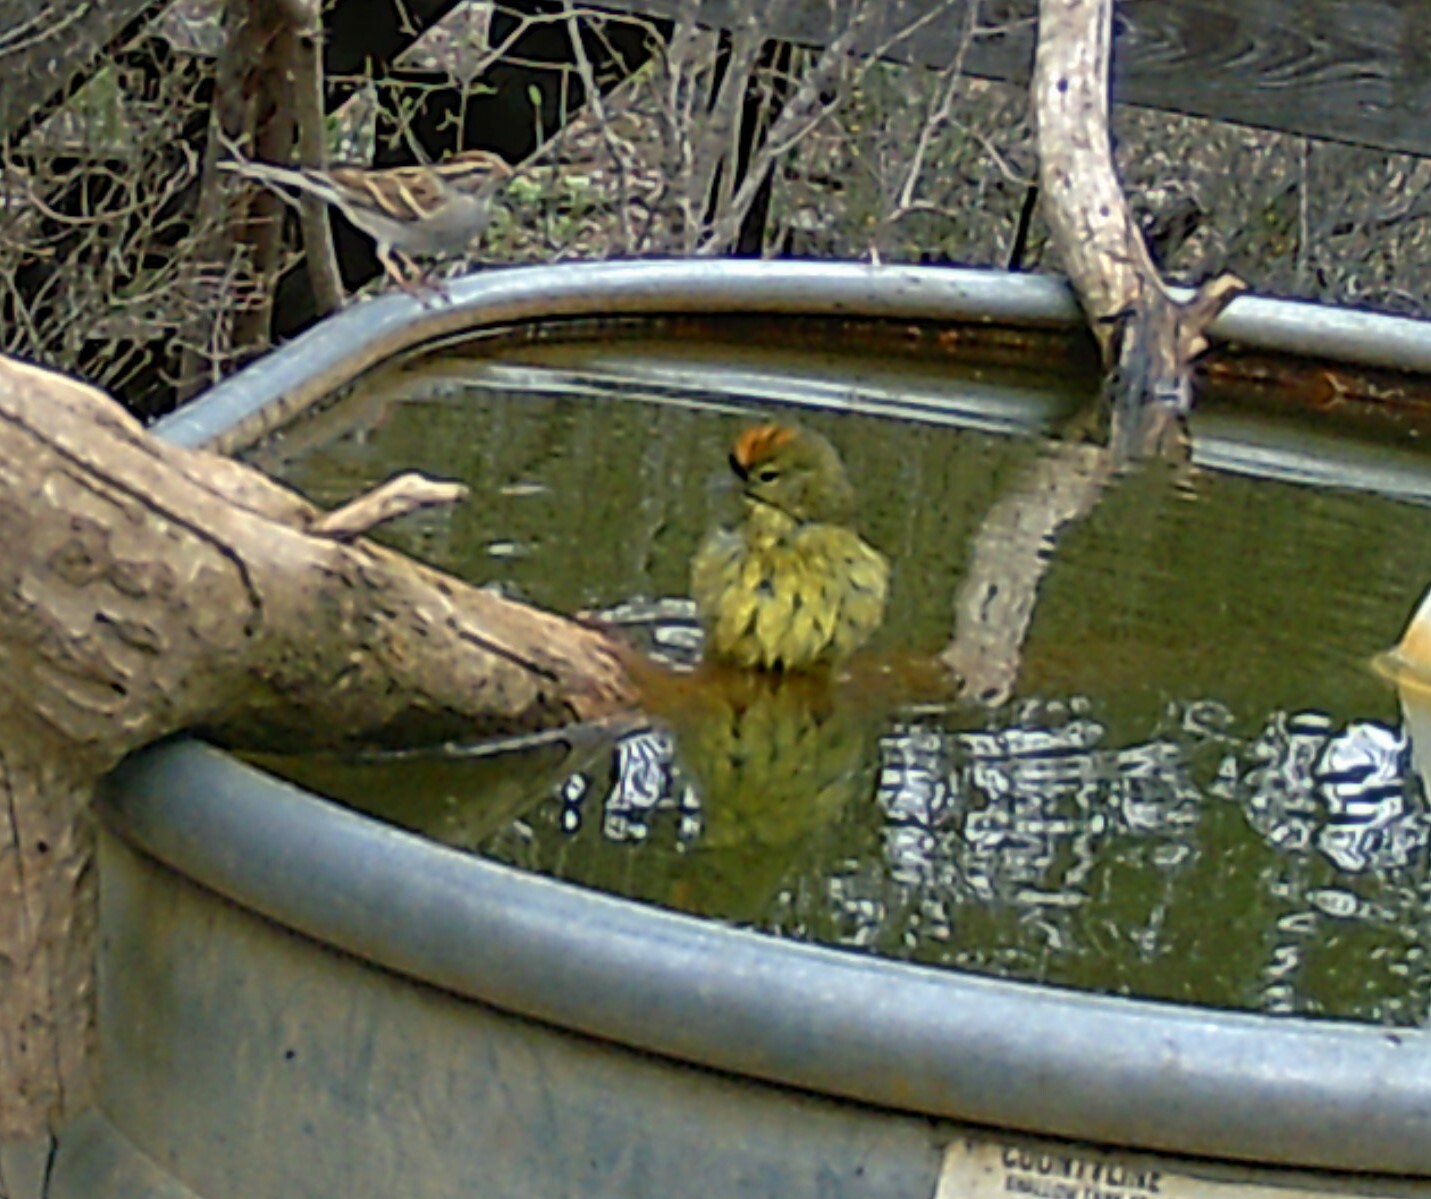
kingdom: Animalia
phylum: Chordata
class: Aves
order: Passeriformes
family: Parulidae
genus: Leiothlypis
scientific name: Leiothlypis celata
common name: Orange-crowned warbler
